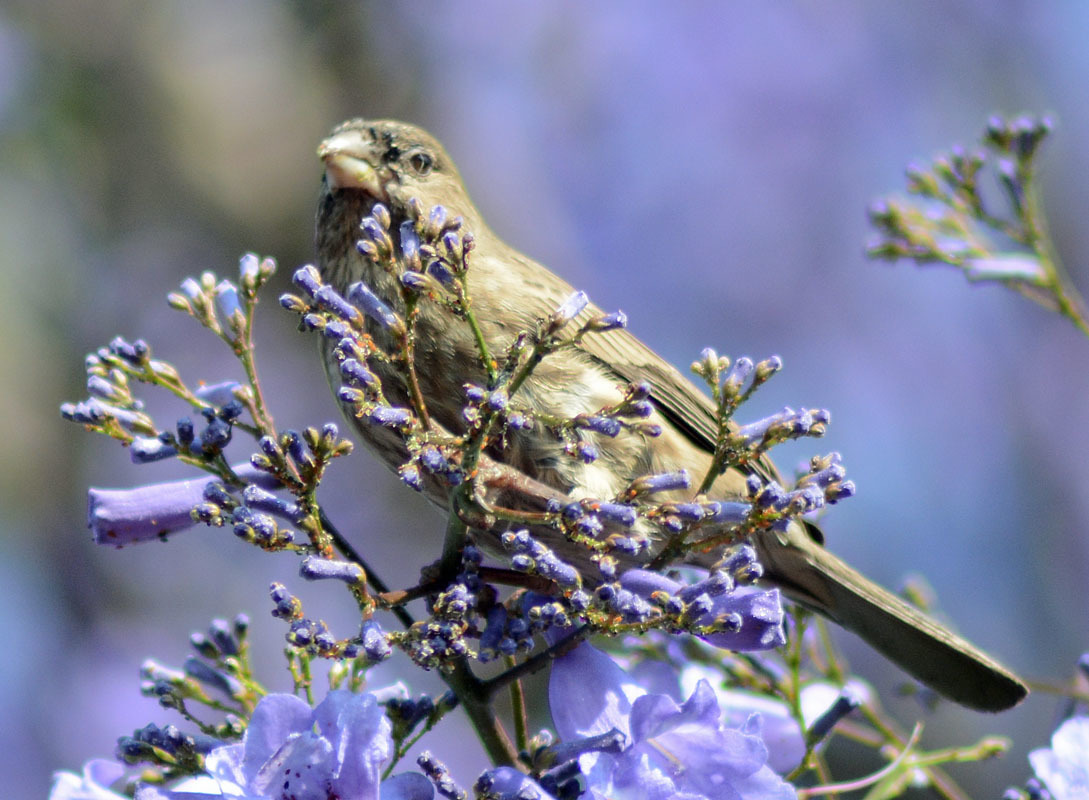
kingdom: Animalia
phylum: Chordata
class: Aves
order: Passeriformes
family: Fringillidae
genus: Haemorhous
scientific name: Haemorhous mexicanus
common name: House finch
